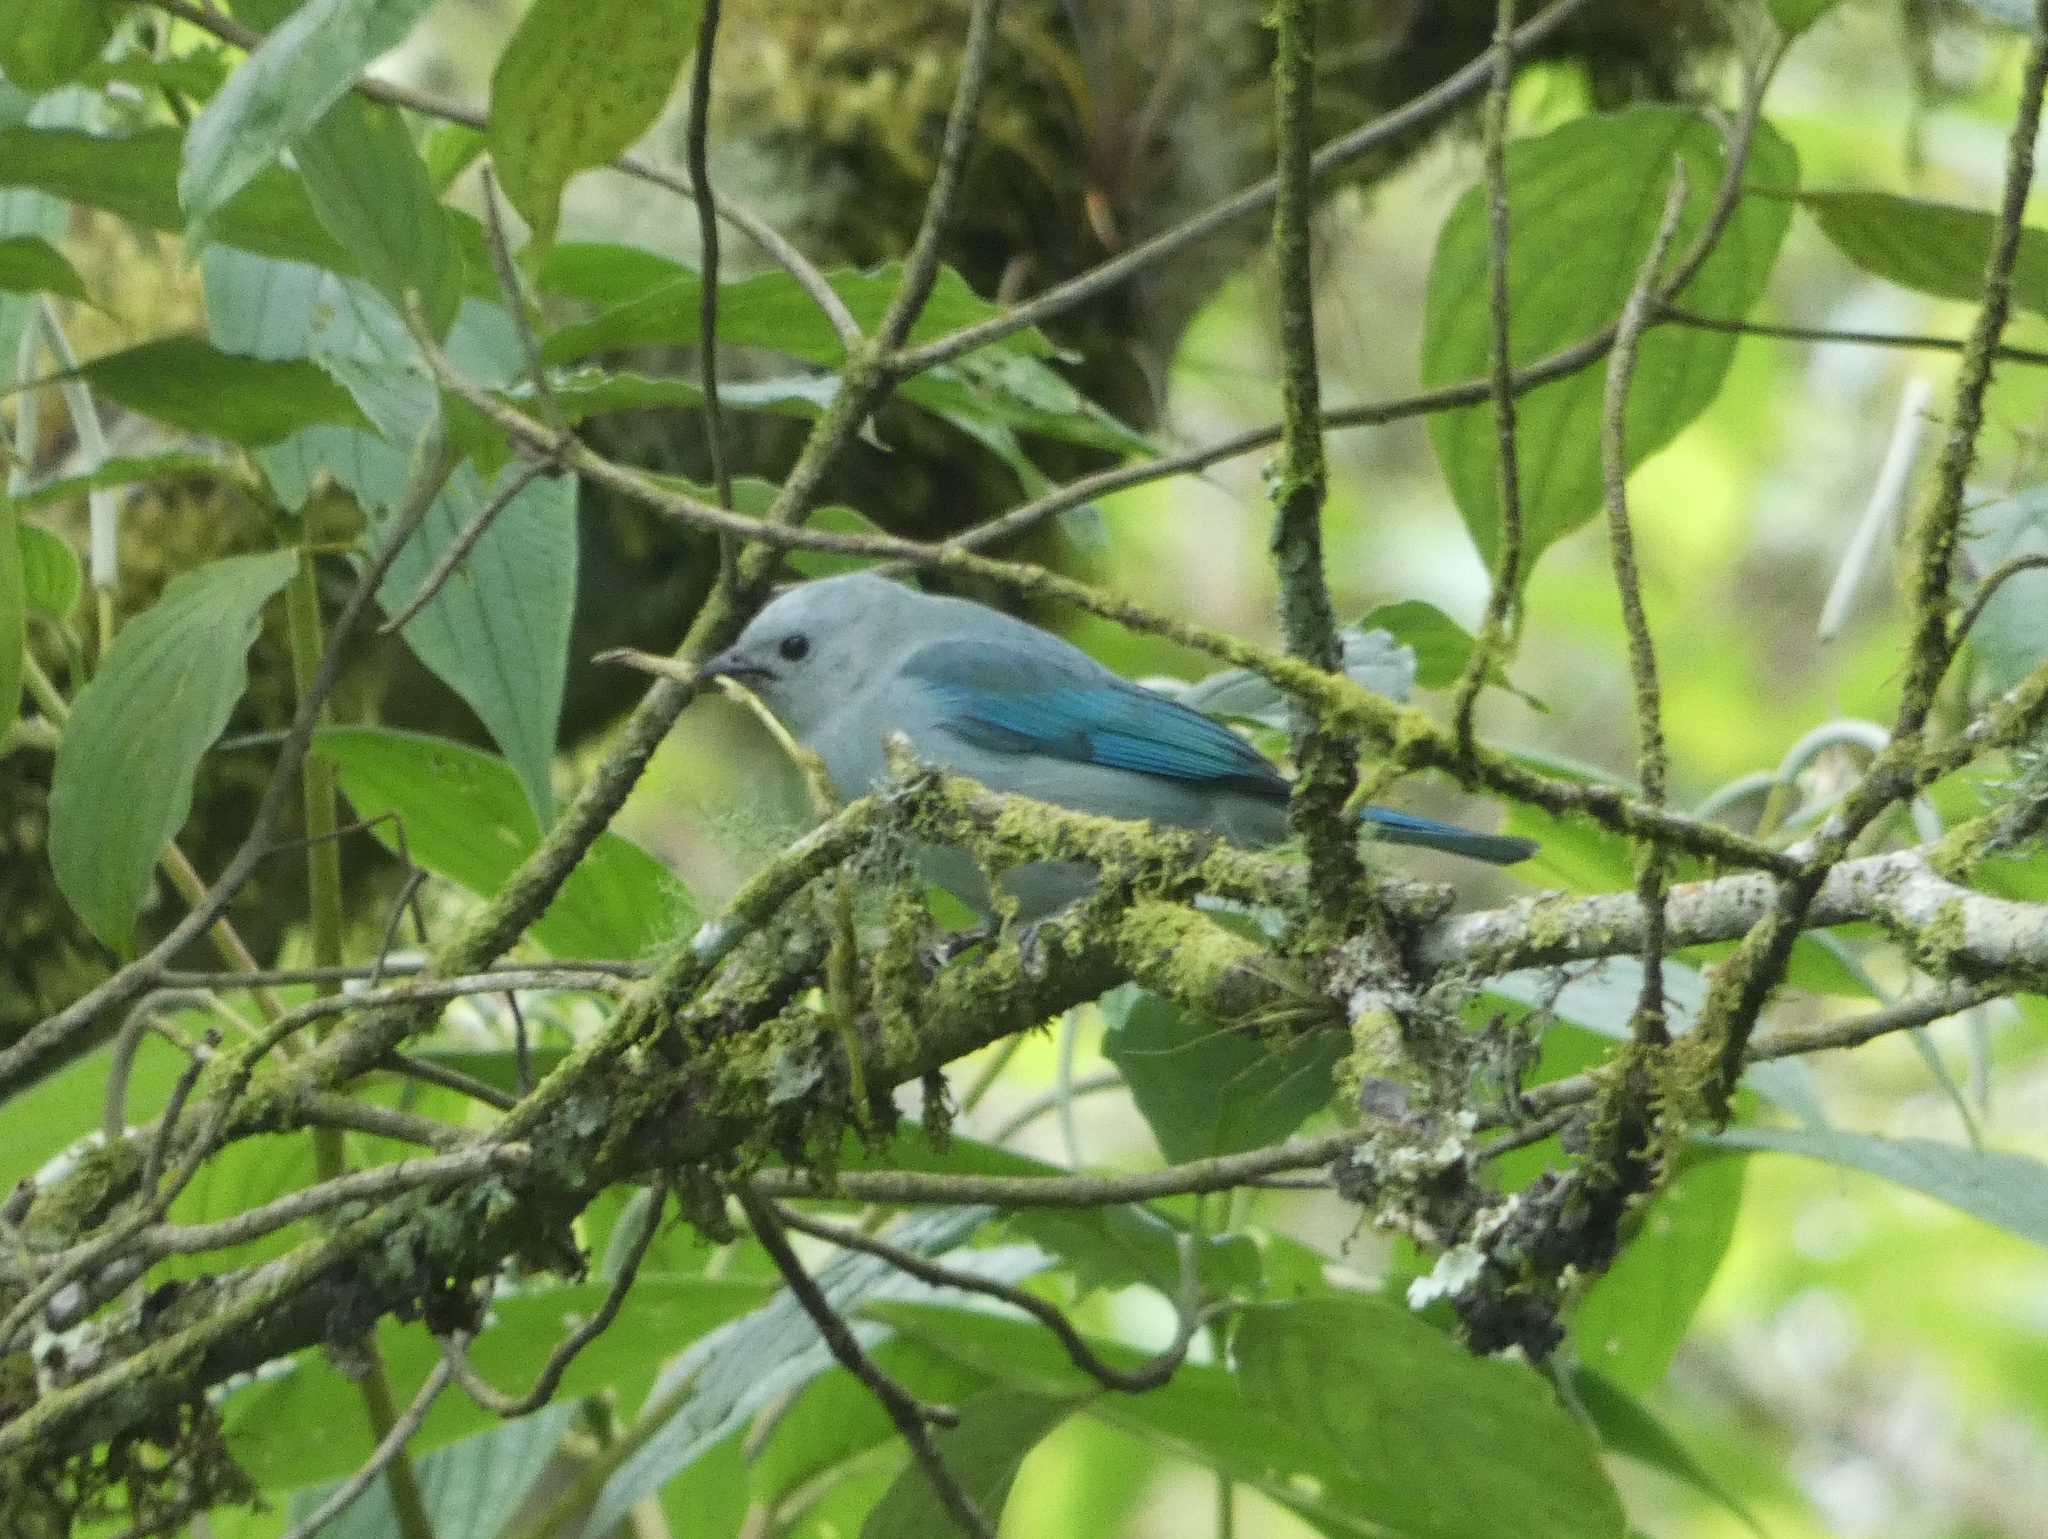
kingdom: Animalia
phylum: Chordata
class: Aves
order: Passeriformes
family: Thraupidae
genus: Thraupis
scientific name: Thraupis episcopus
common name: Blue-grey tanager
